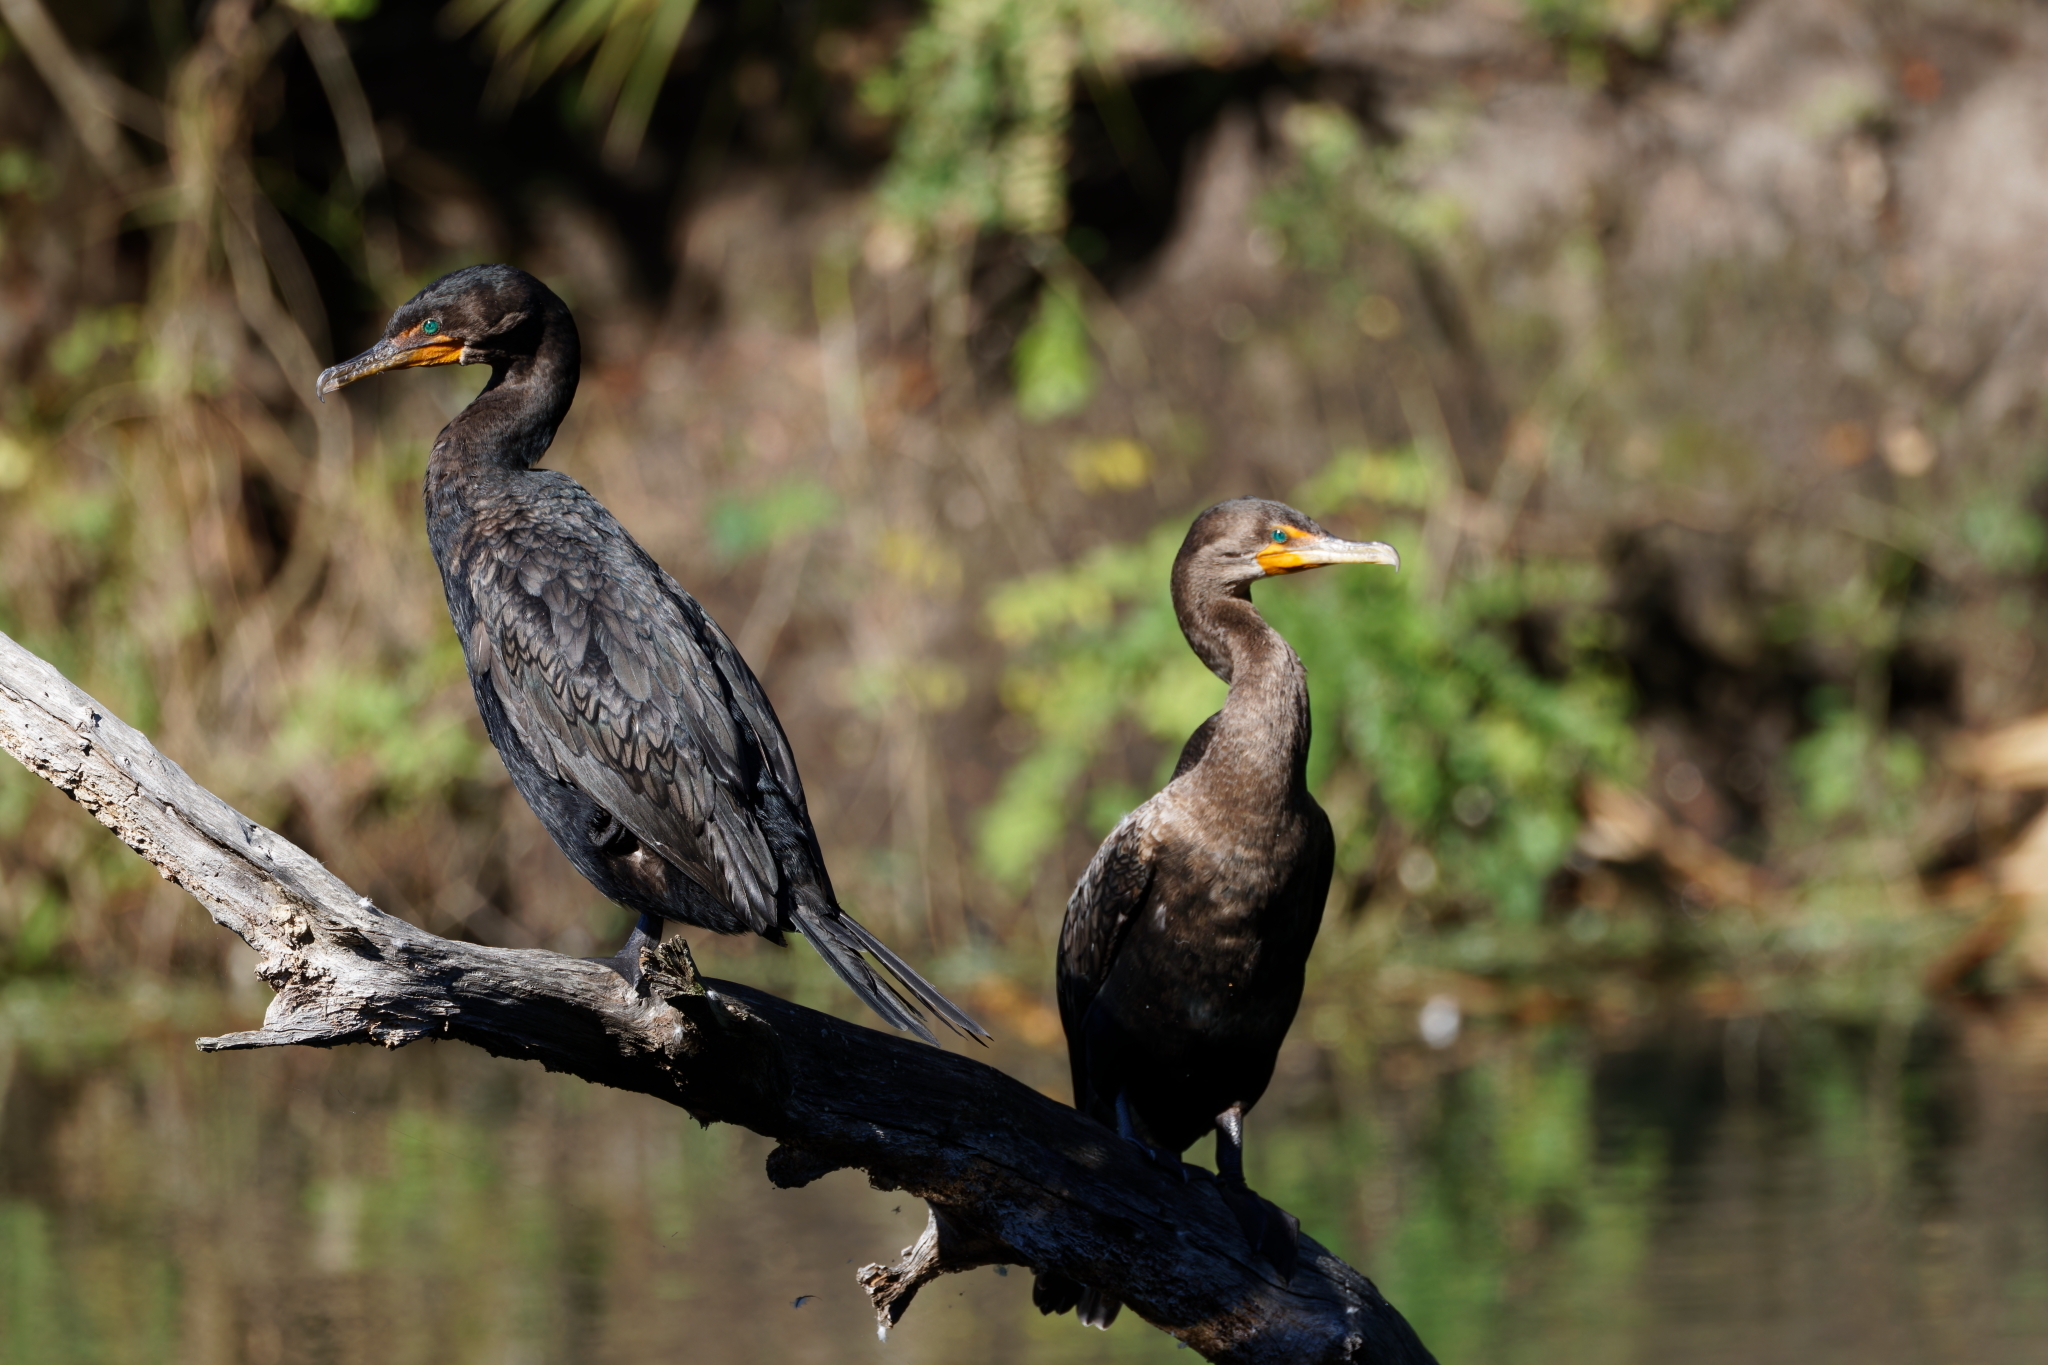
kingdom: Animalia
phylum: Chordata
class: Aves
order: Suliformes
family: Phalacrocoracidae
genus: Phalacrocorax
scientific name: Phalacrocorax auritus
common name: Double-crested cormorant
